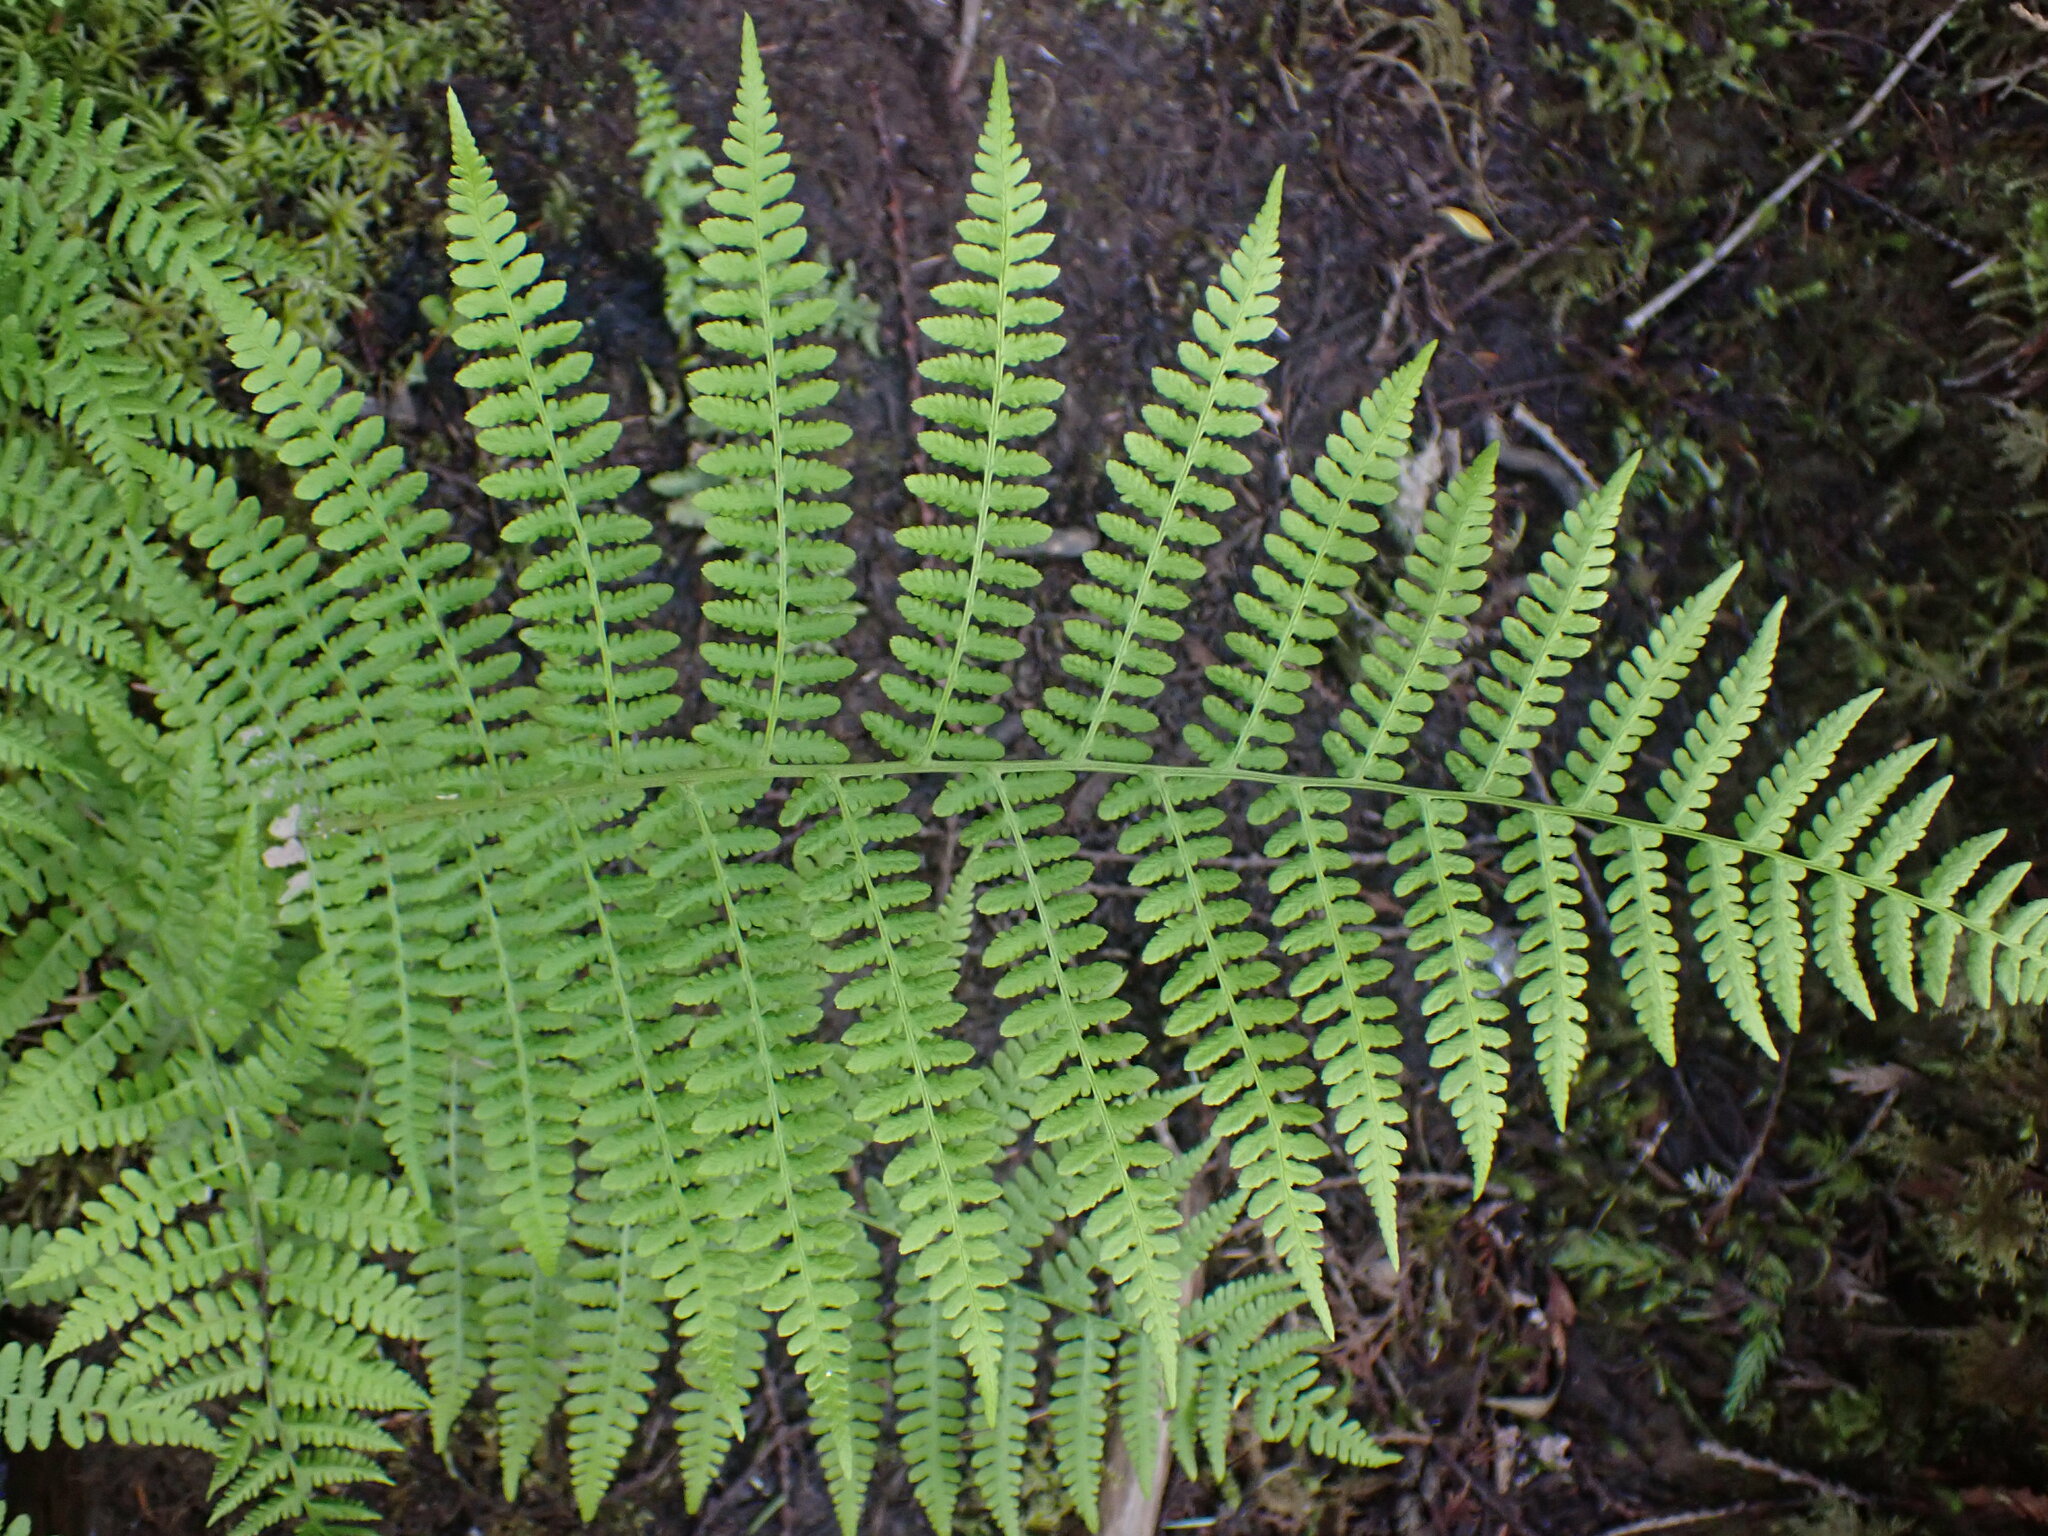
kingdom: Plantae
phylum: Tracheophyta
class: Polypodiopsida
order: Polypodiales
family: Athyriaceae
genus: Athyrium
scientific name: Athyrium filix-femina
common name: Lady fern
